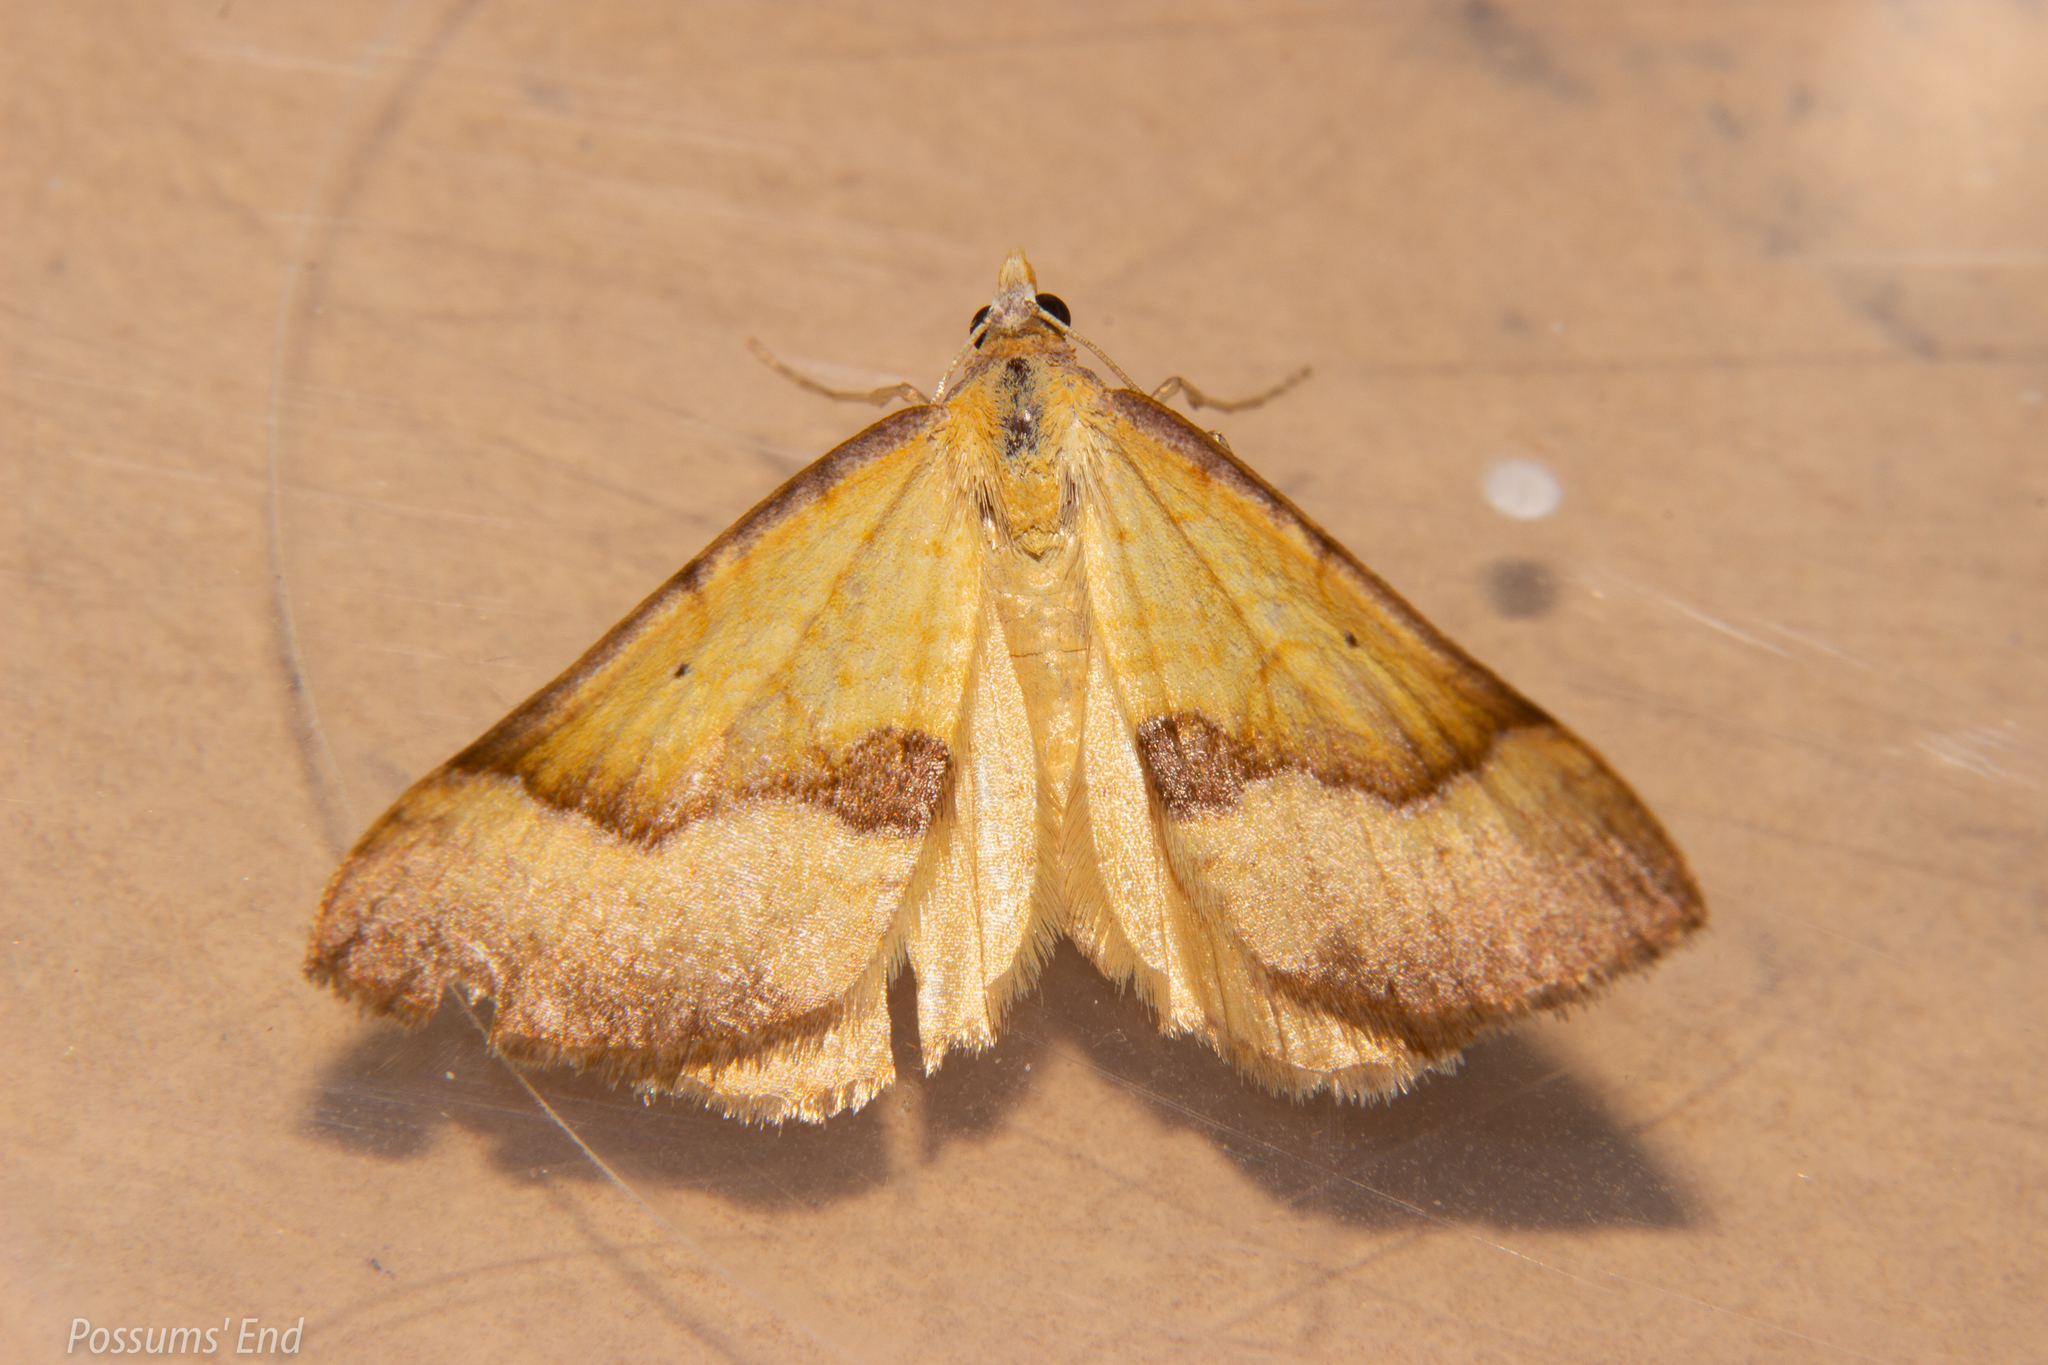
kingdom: Animalia
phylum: Arthropoda
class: Insecta
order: Lepidoptera
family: Geometridae
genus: Anachloris
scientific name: Anachloris subochraria
